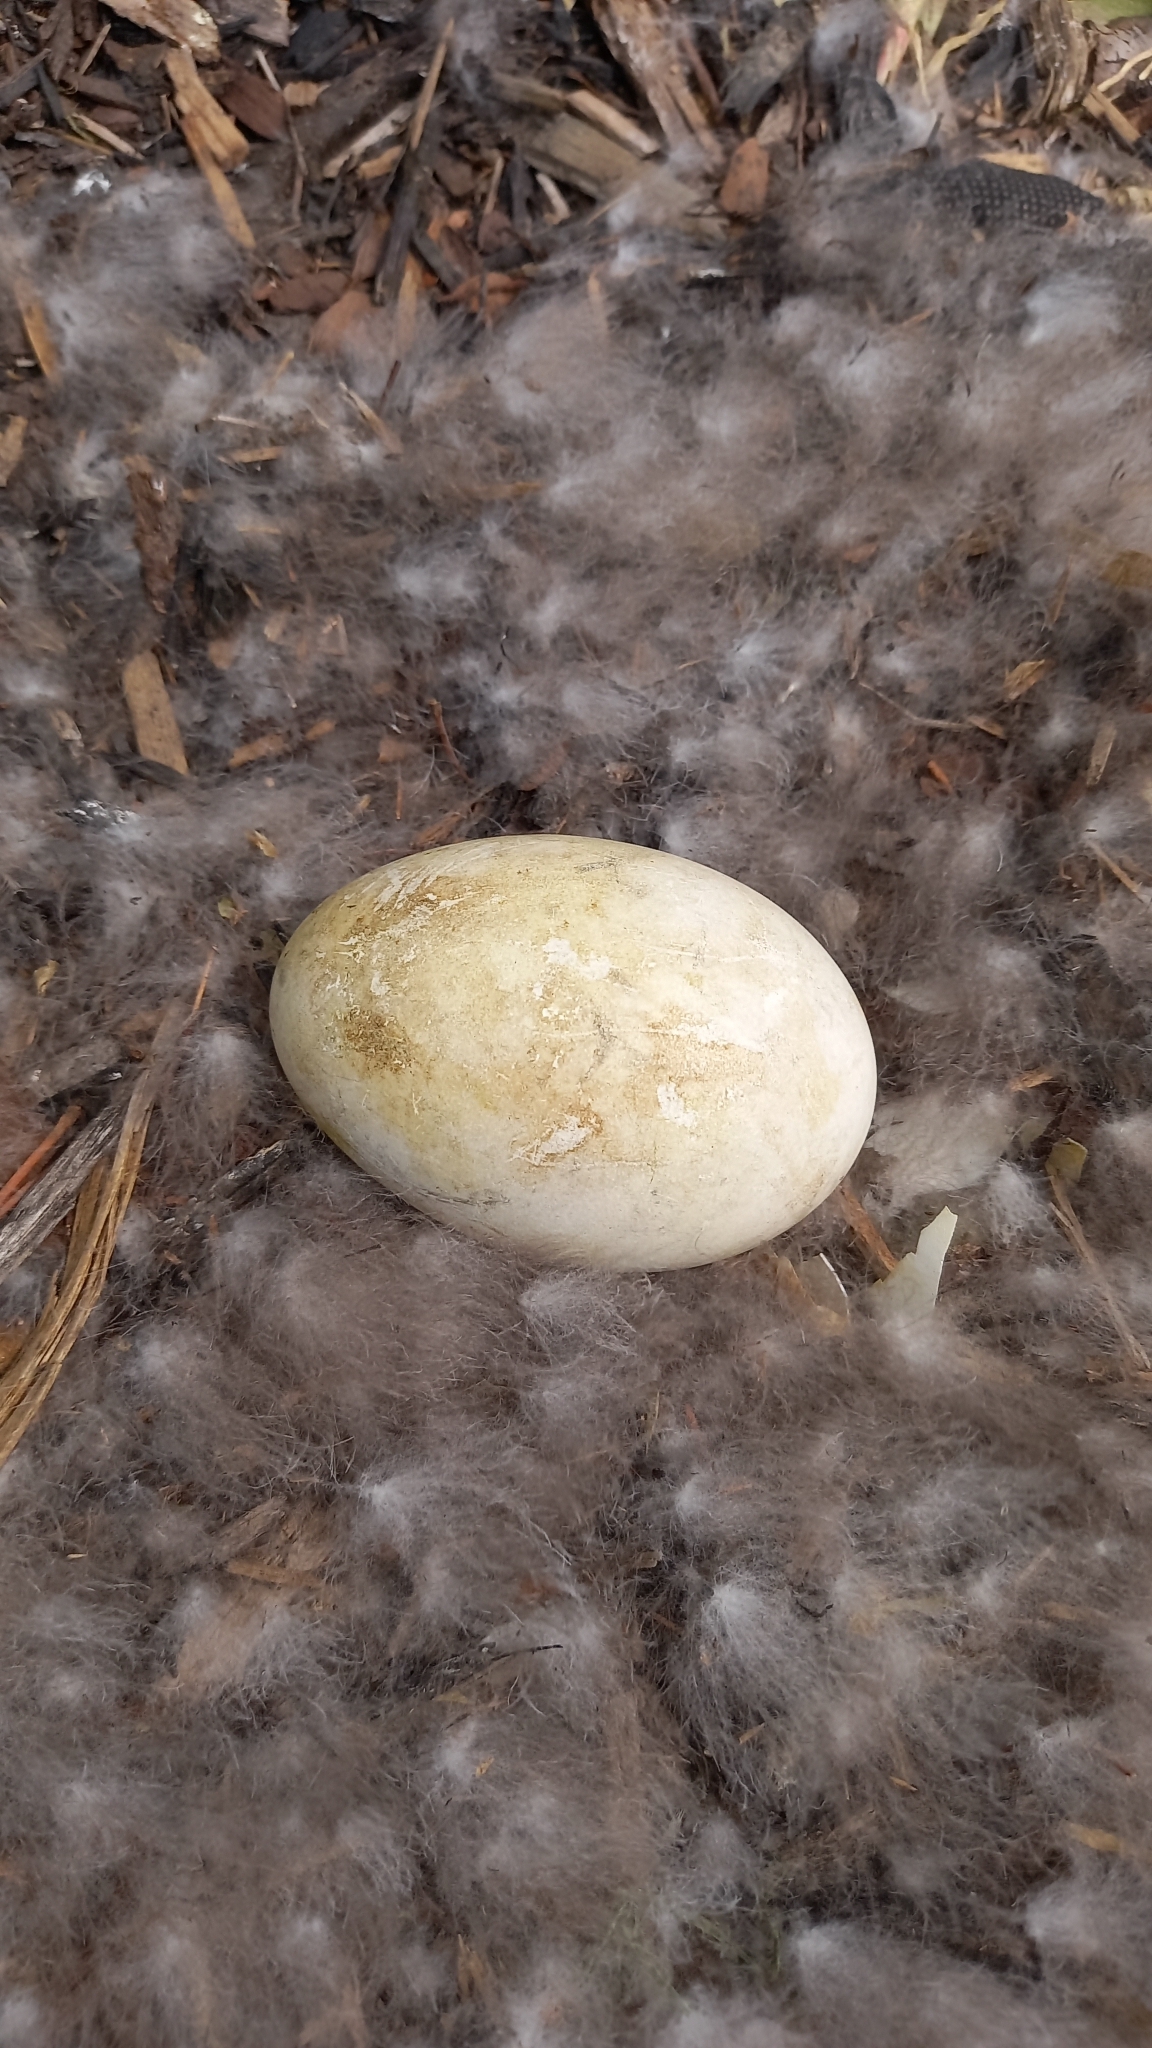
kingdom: Animalia
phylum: Chordata
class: Aves
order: Anseriformes
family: Anatidae
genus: Branta
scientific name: Branta canadensis
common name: Canada goose
